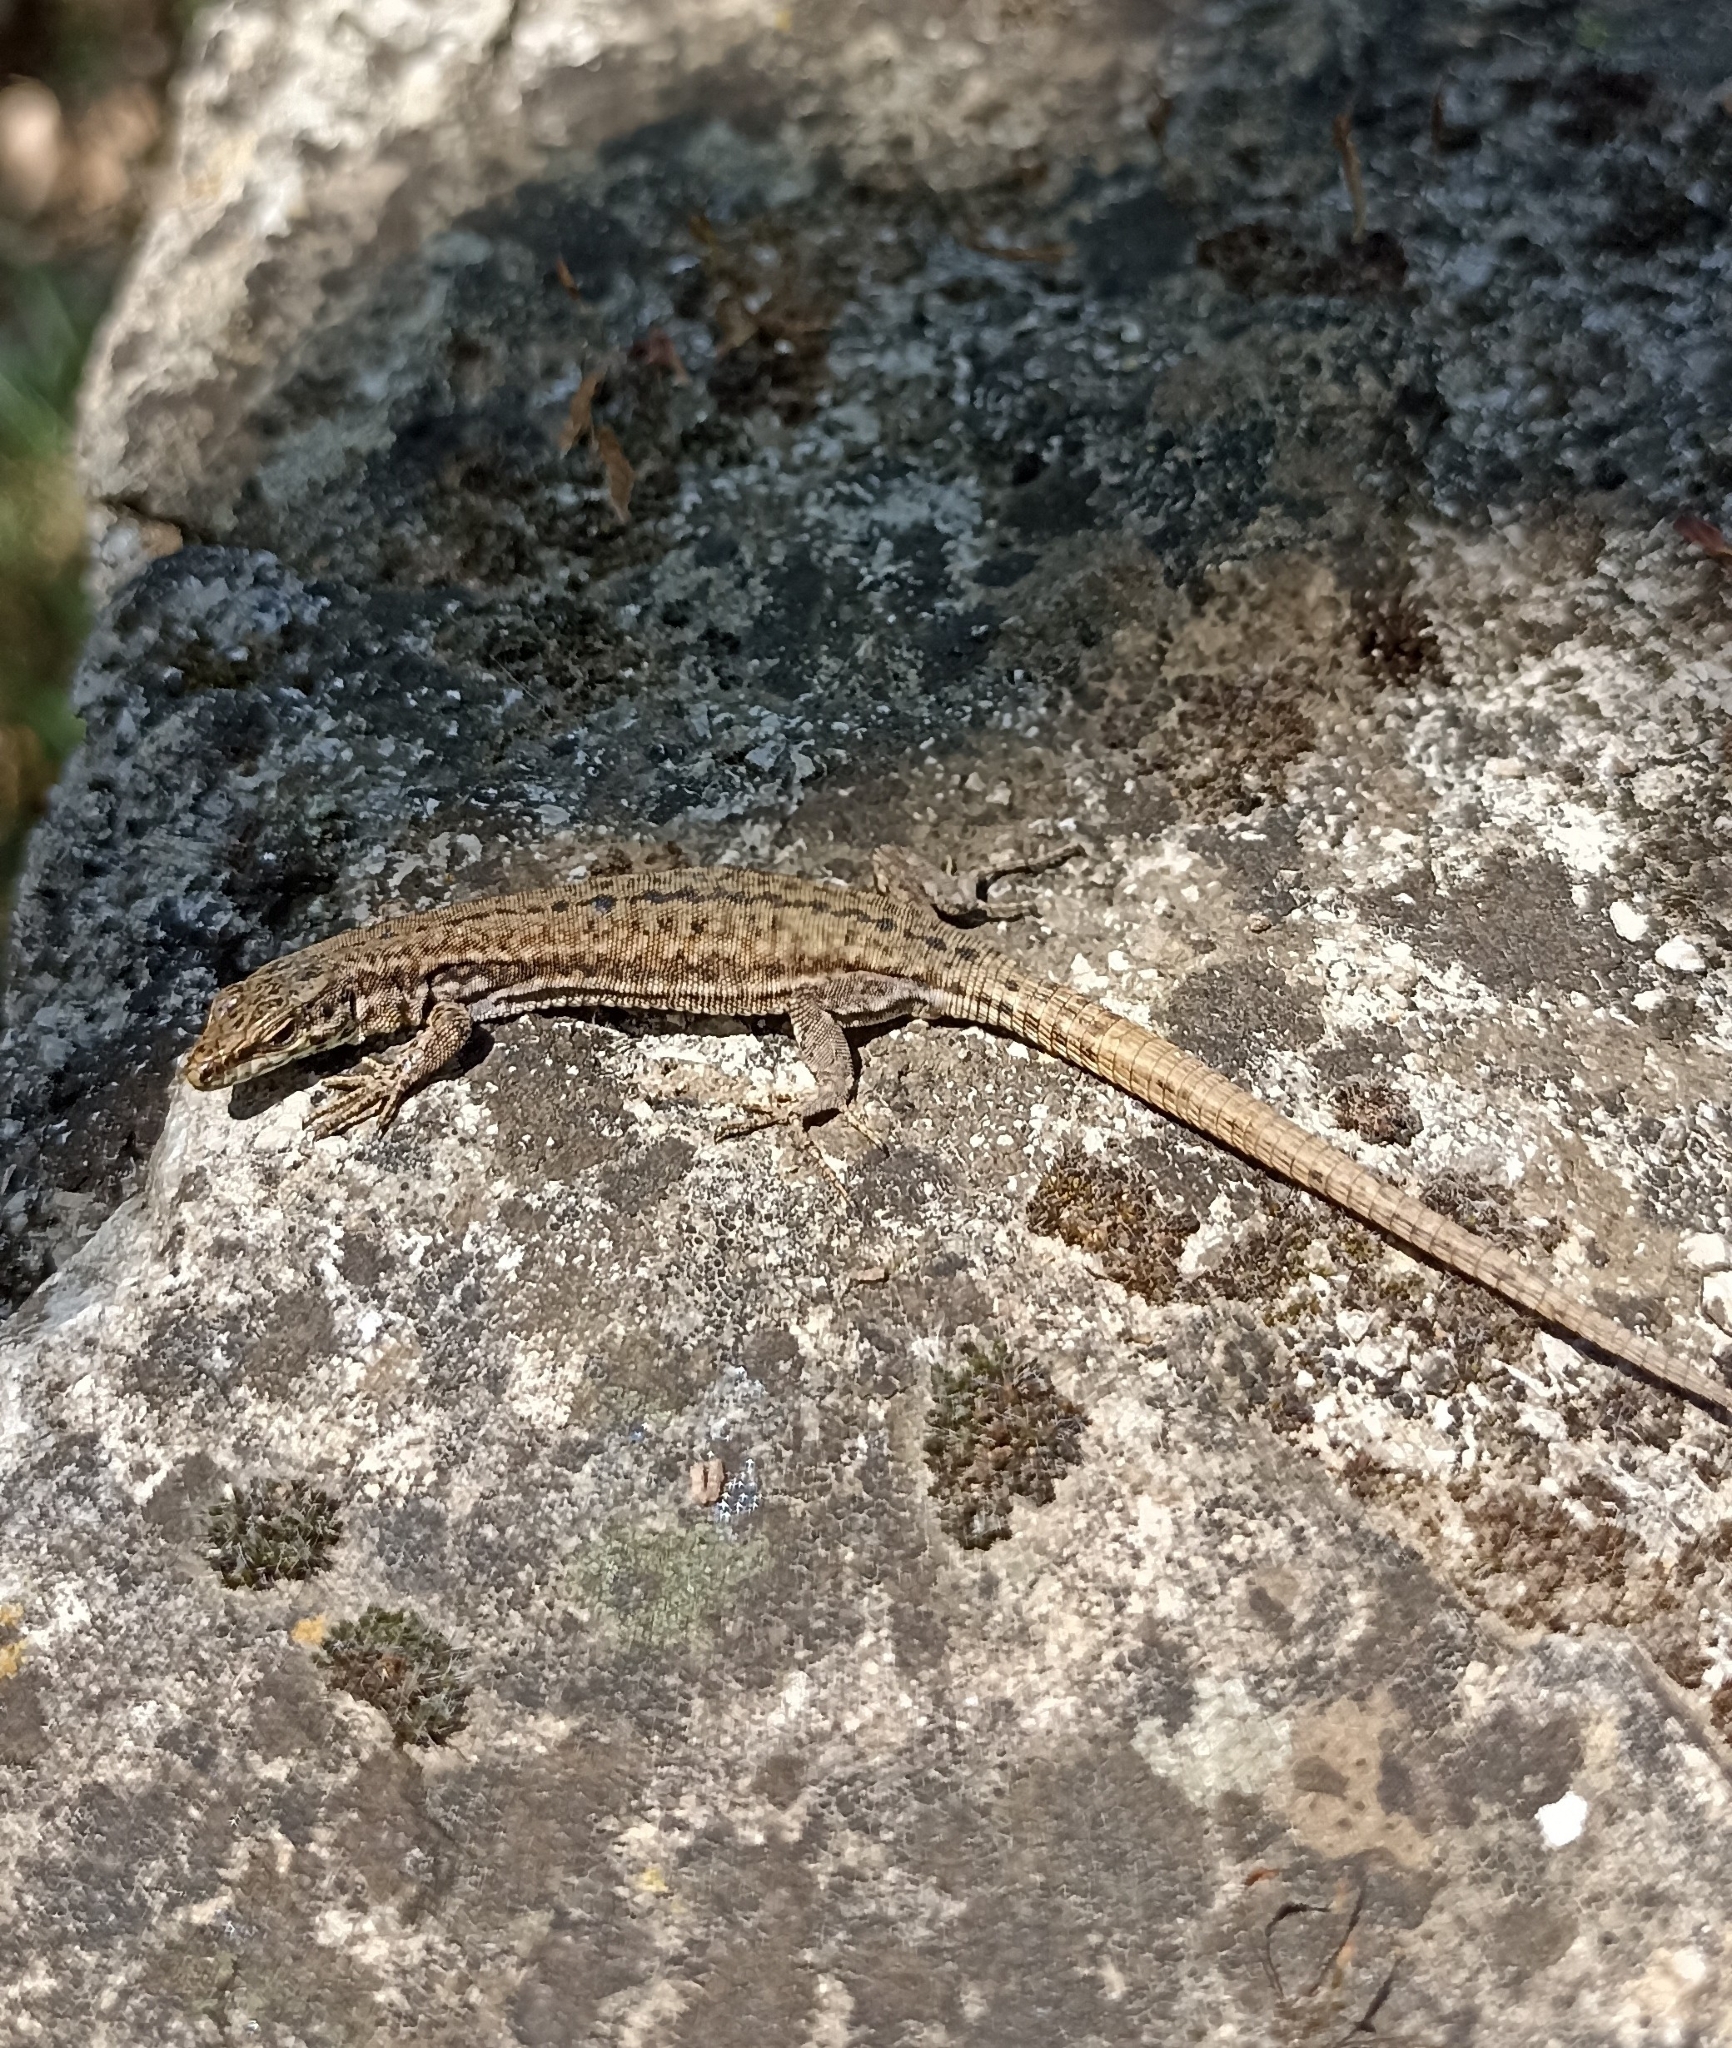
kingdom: Animalia
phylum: Chordata
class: Squamata
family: Lacertidae
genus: Podarcis
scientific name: Podarcis liolepis
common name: Catalonian wall lizard
